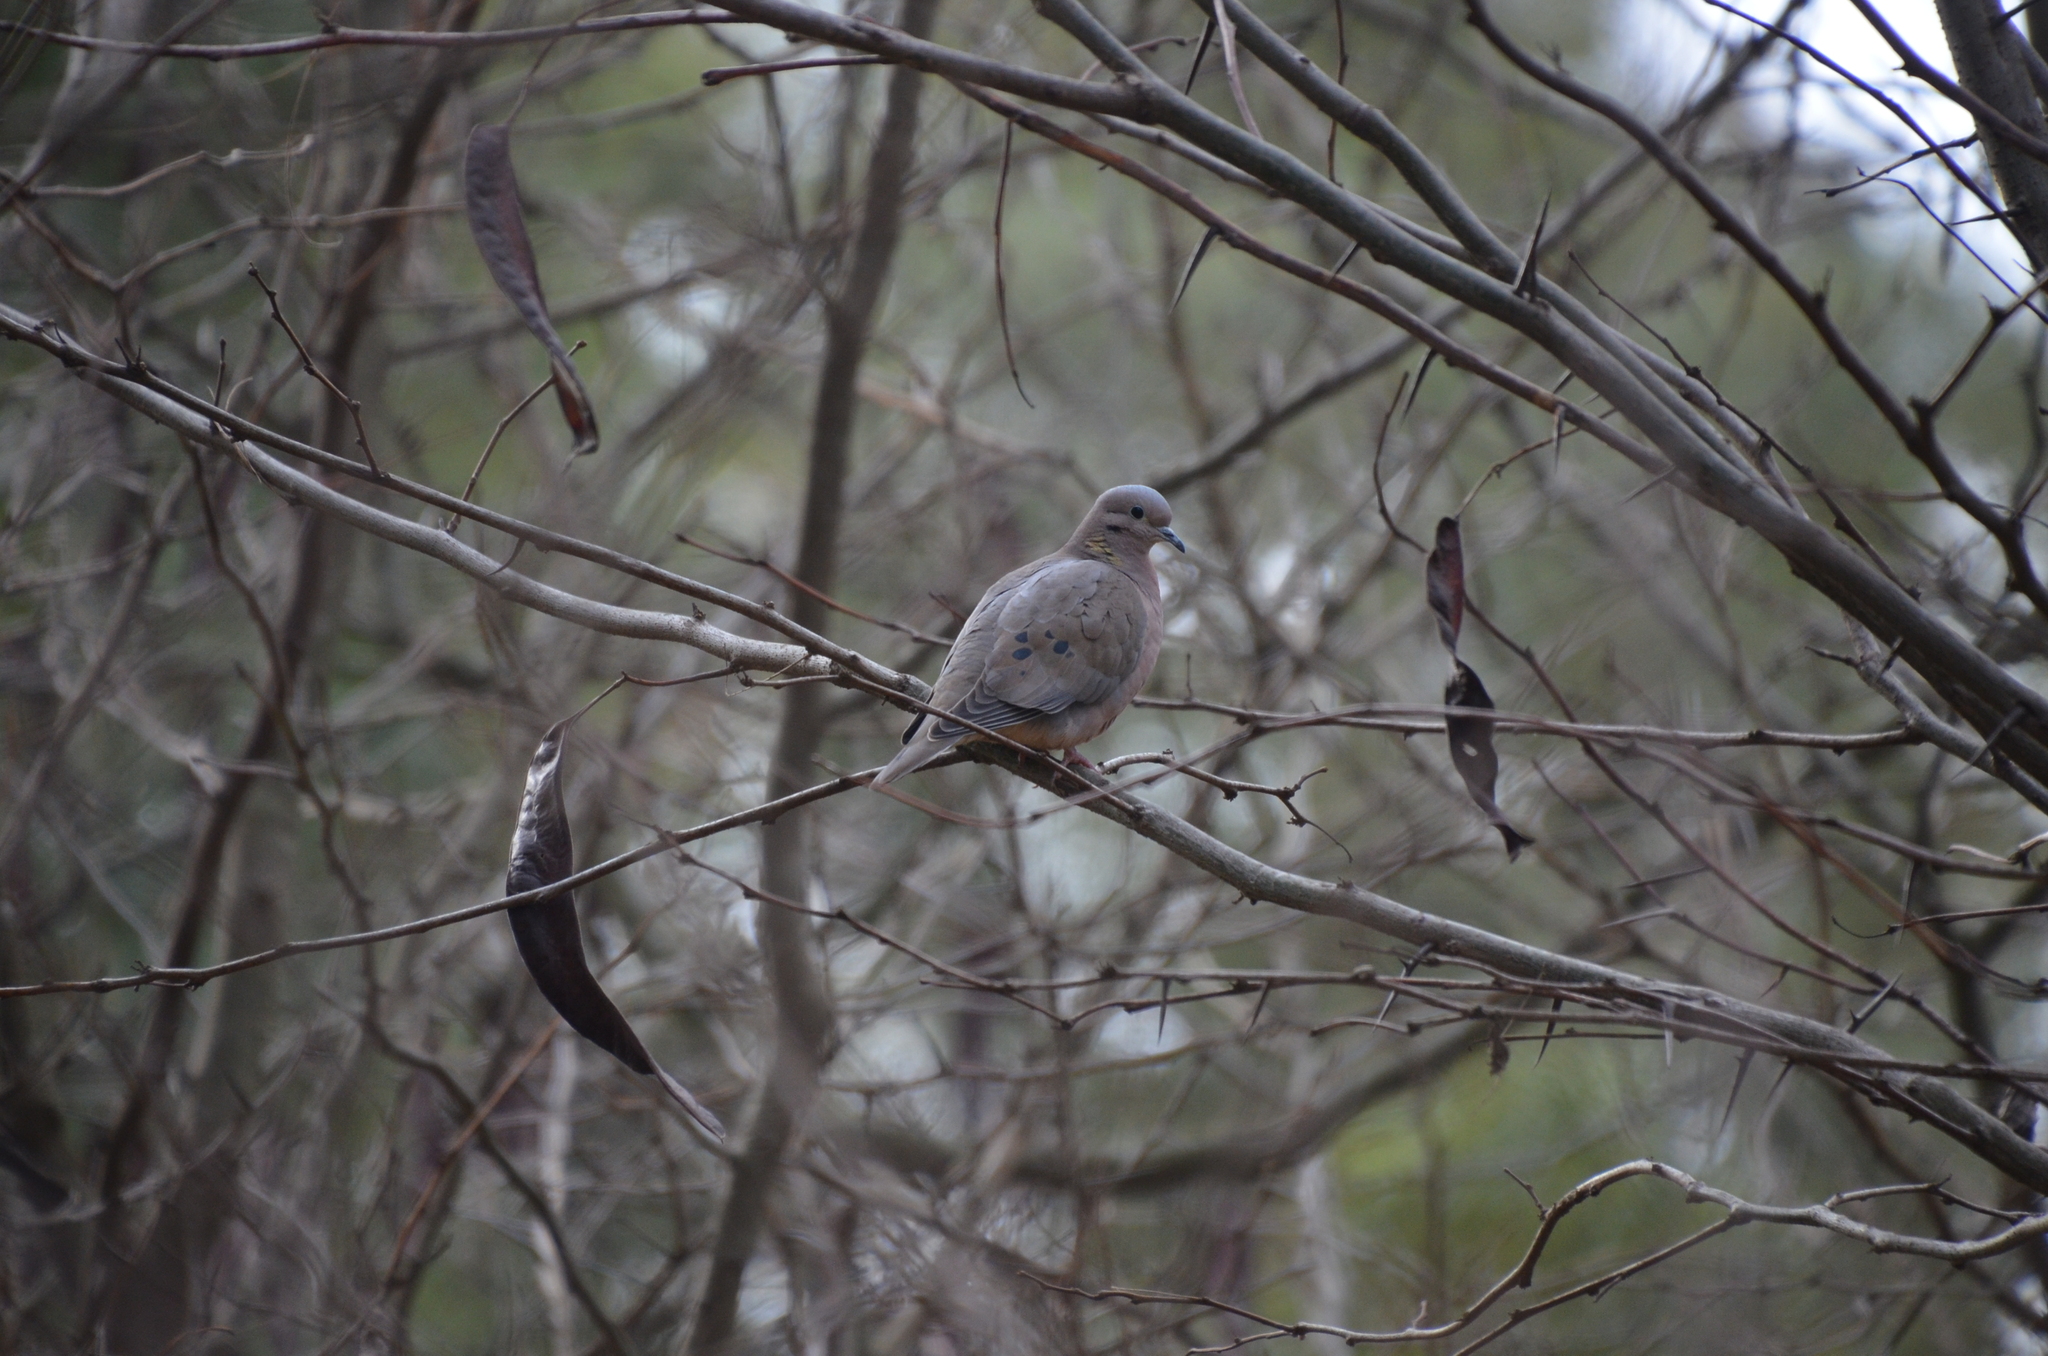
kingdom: Animalia
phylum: Chordata
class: Aves
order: Columbiformes
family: Columbidae
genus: Zenaida
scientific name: Zenaida auriculata
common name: Eared dove
